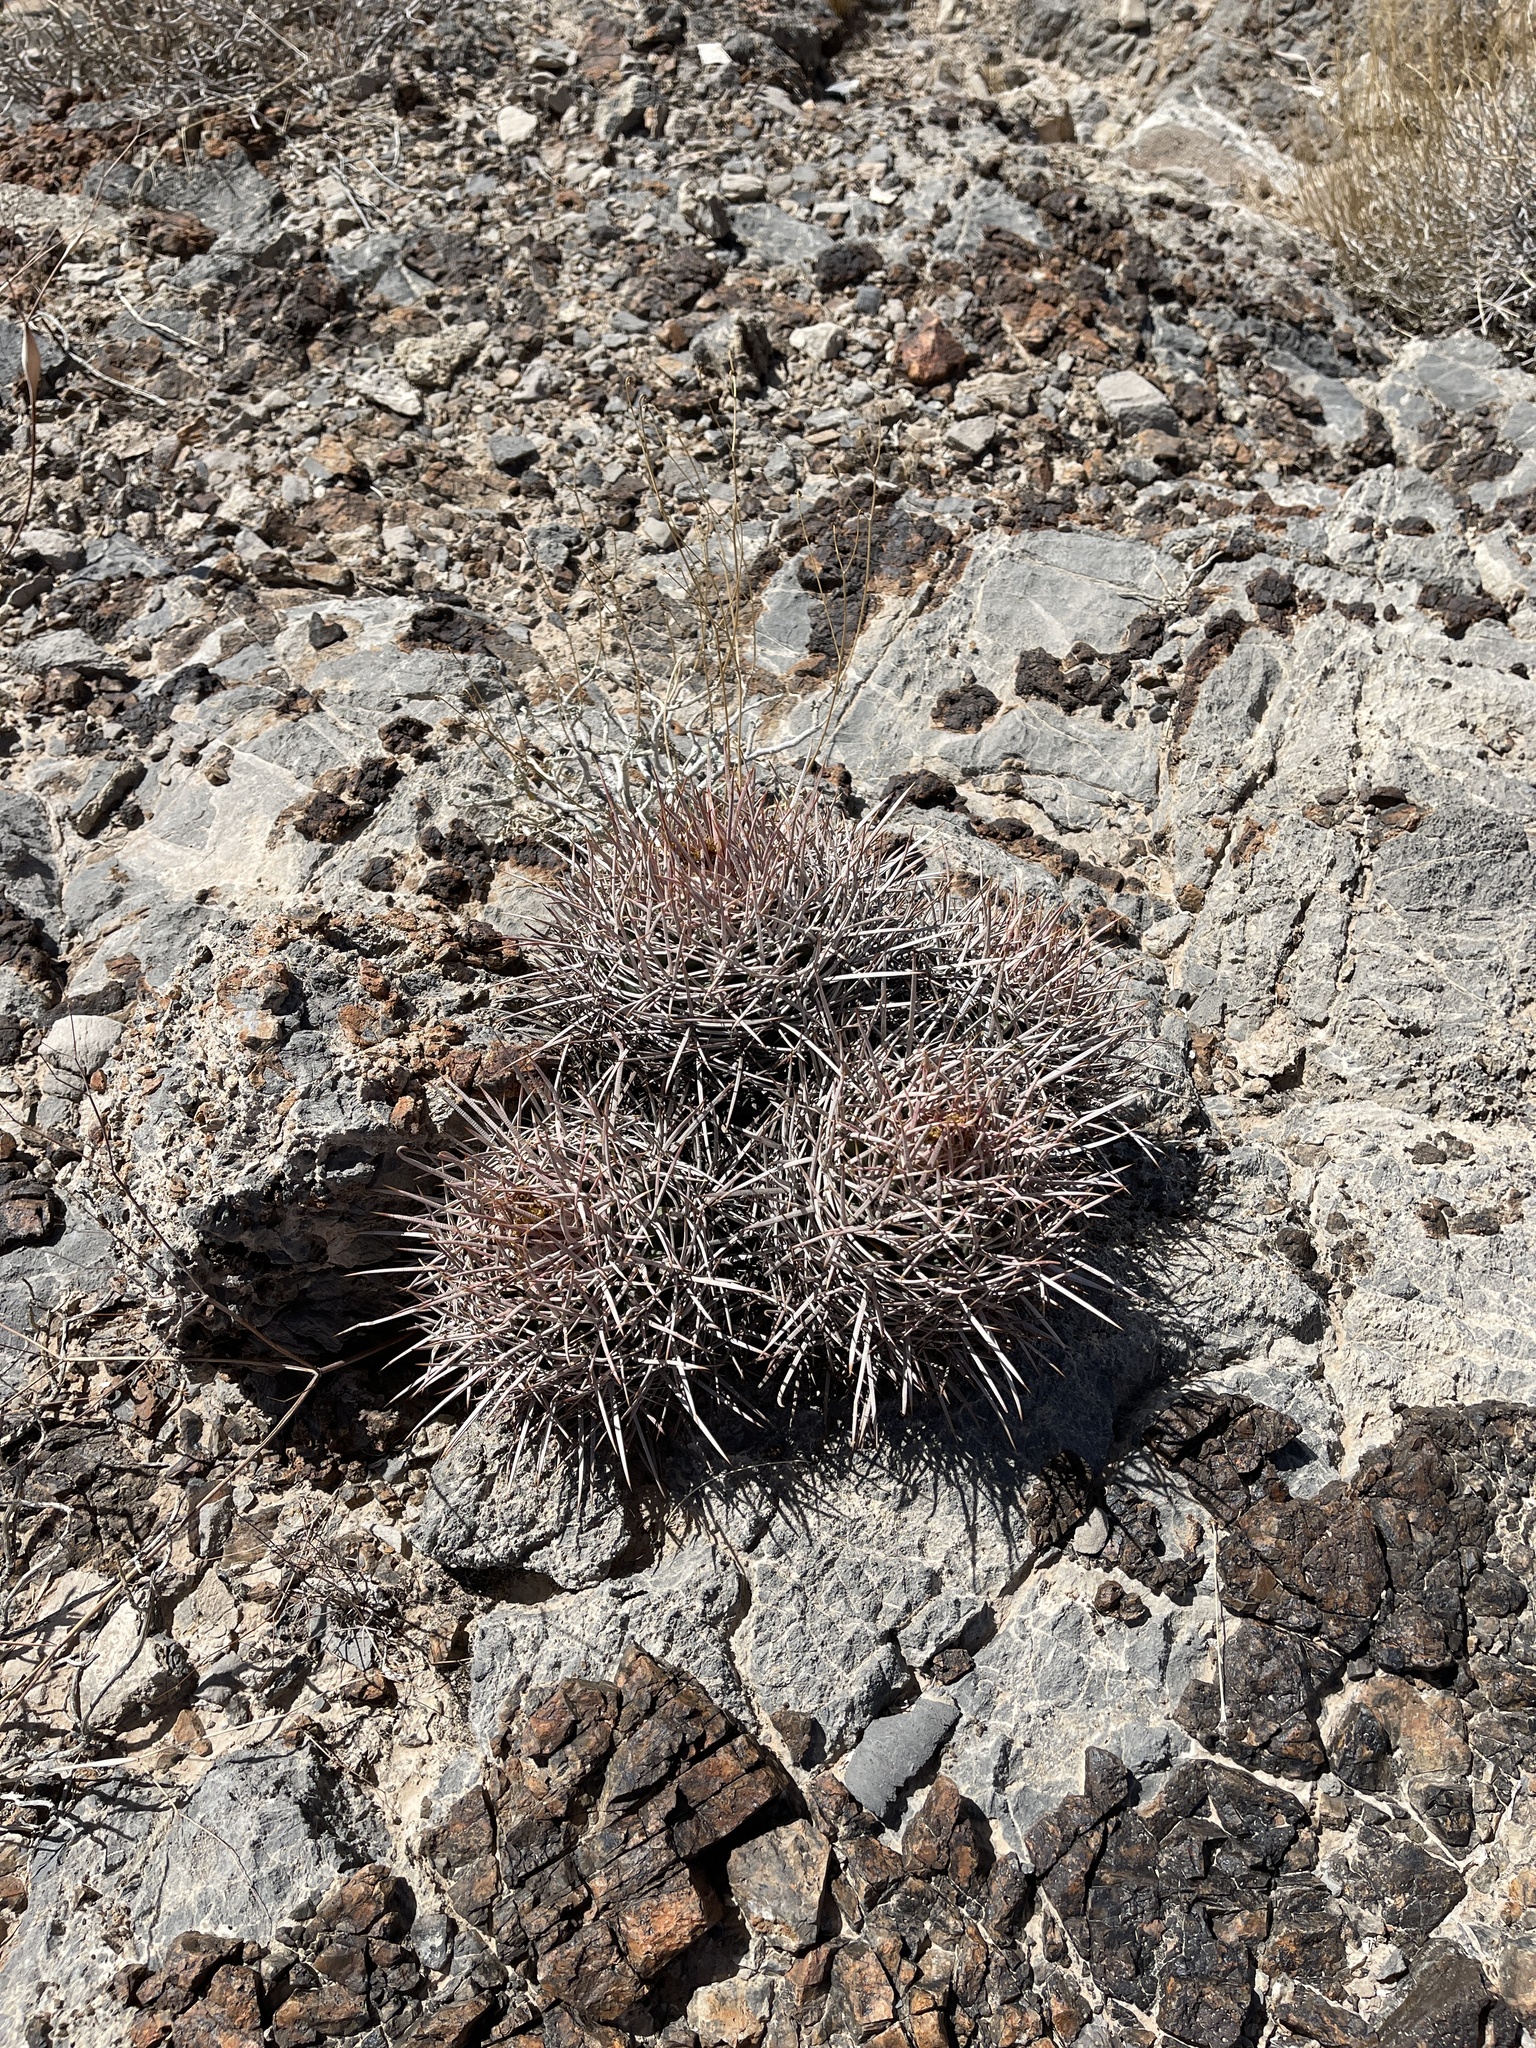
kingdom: Plantae
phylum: Tracheophyta
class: Magnoliopsida
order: Caryophyllales
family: Cactaceae
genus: Echinocactus
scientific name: Echinocactus polycephalus
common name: Cottontop cactus
